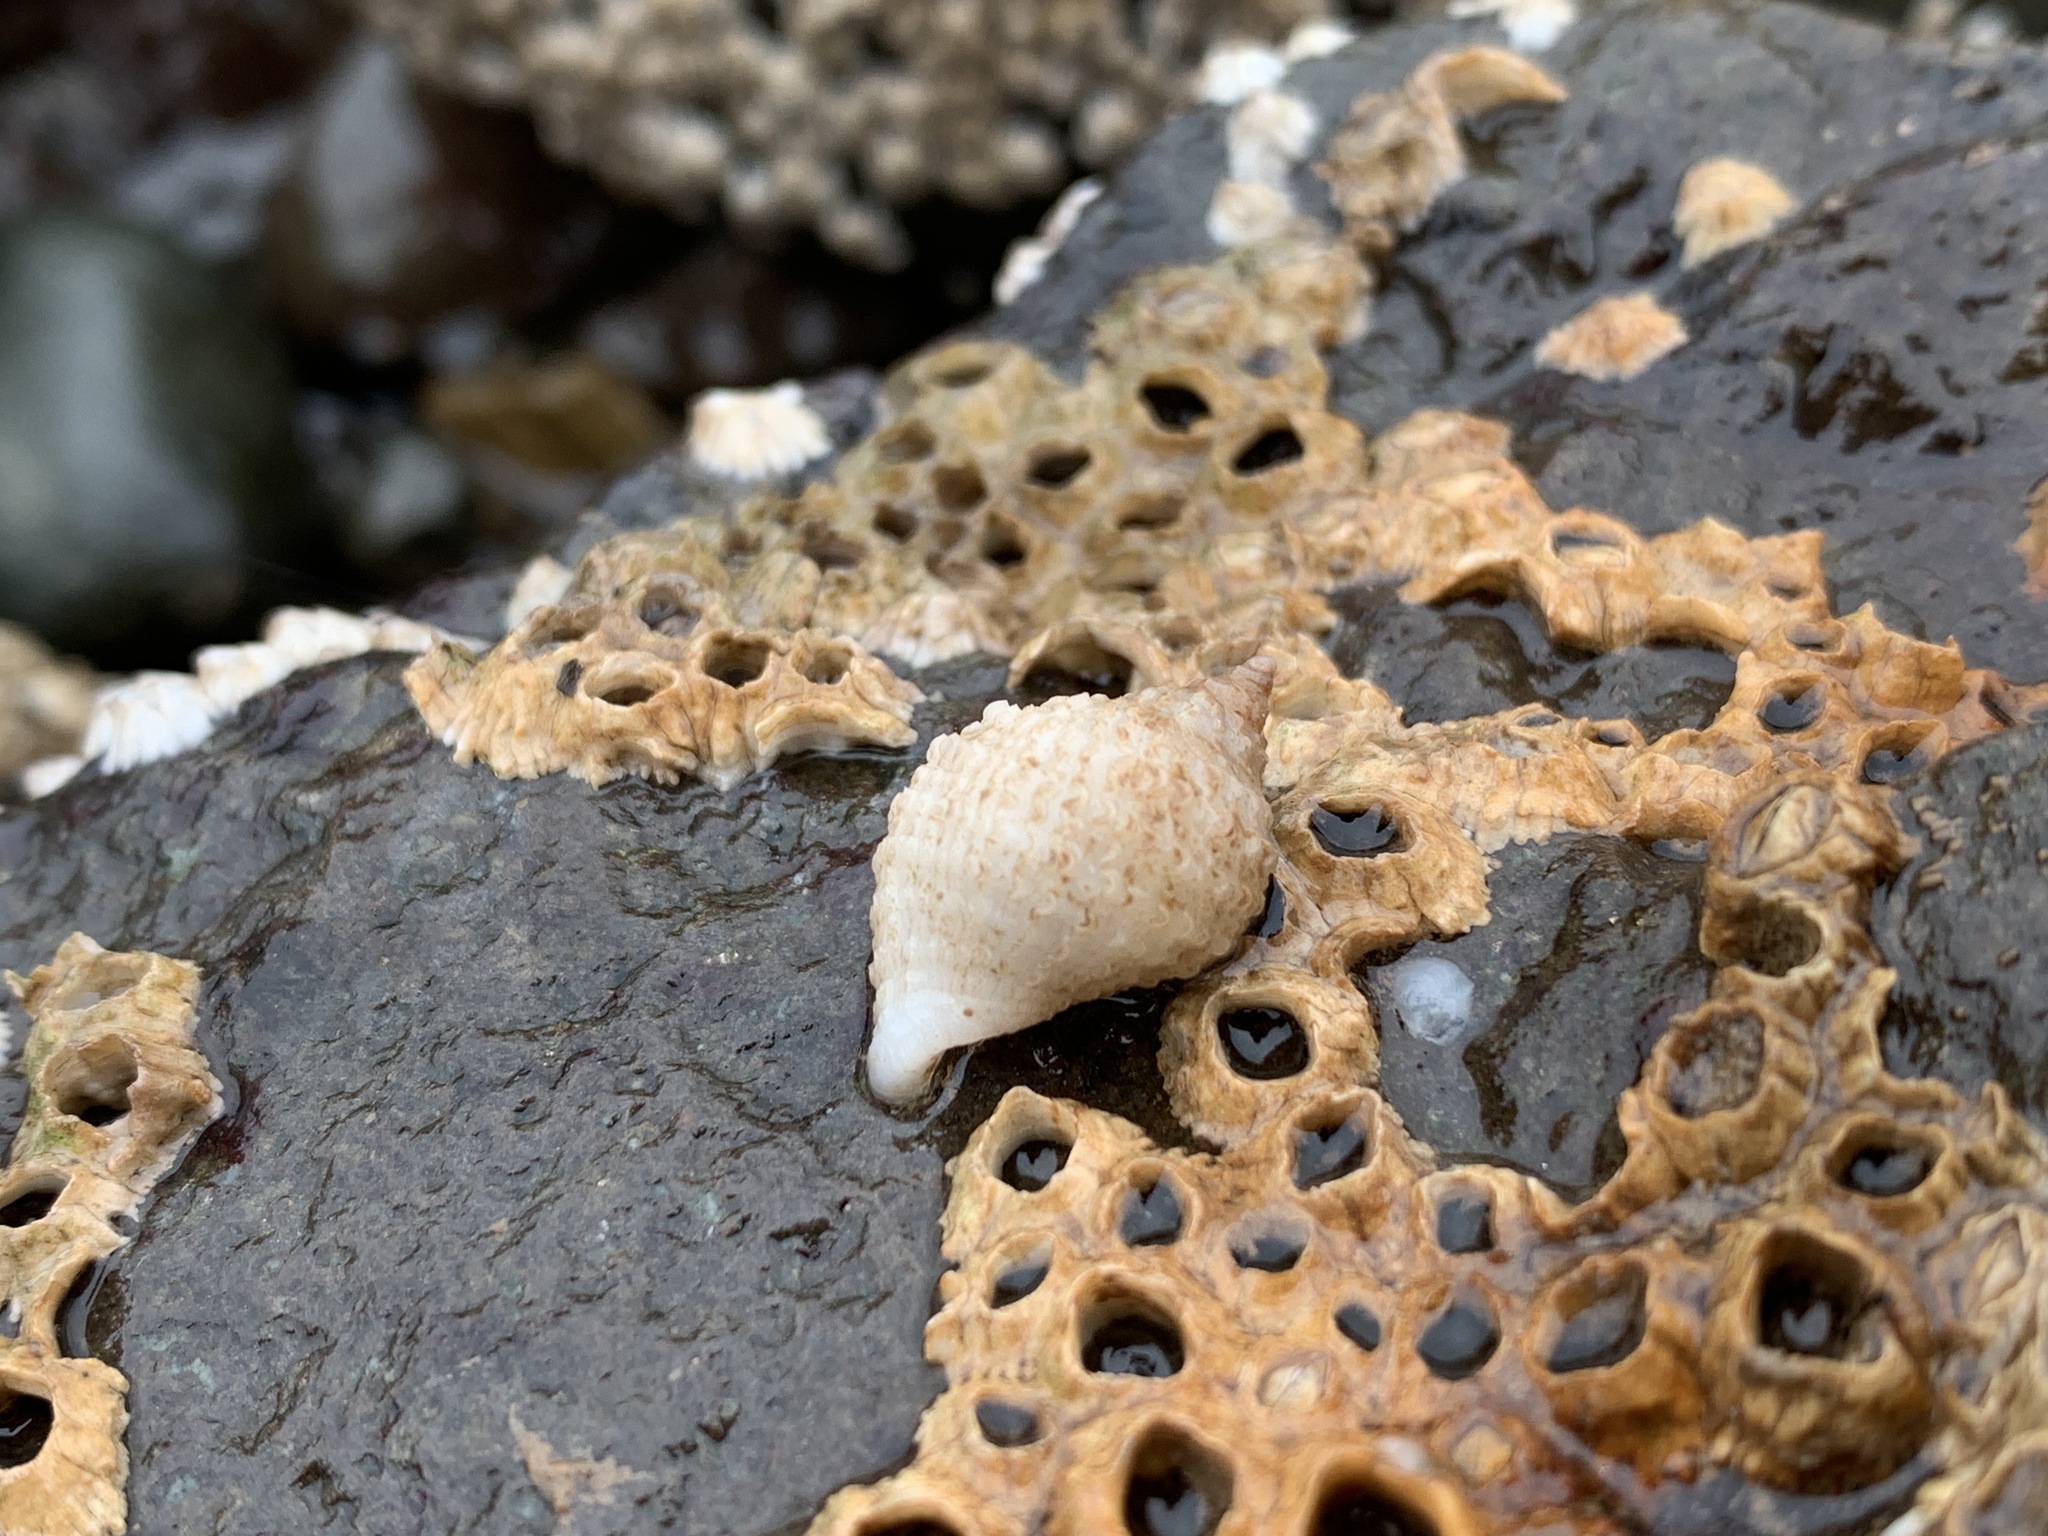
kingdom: Animalia
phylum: Mollusca
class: Gastropoda
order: Neogastropoda
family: Muricidae
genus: Nucella
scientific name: Nucella lapillus
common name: Dog whelk
